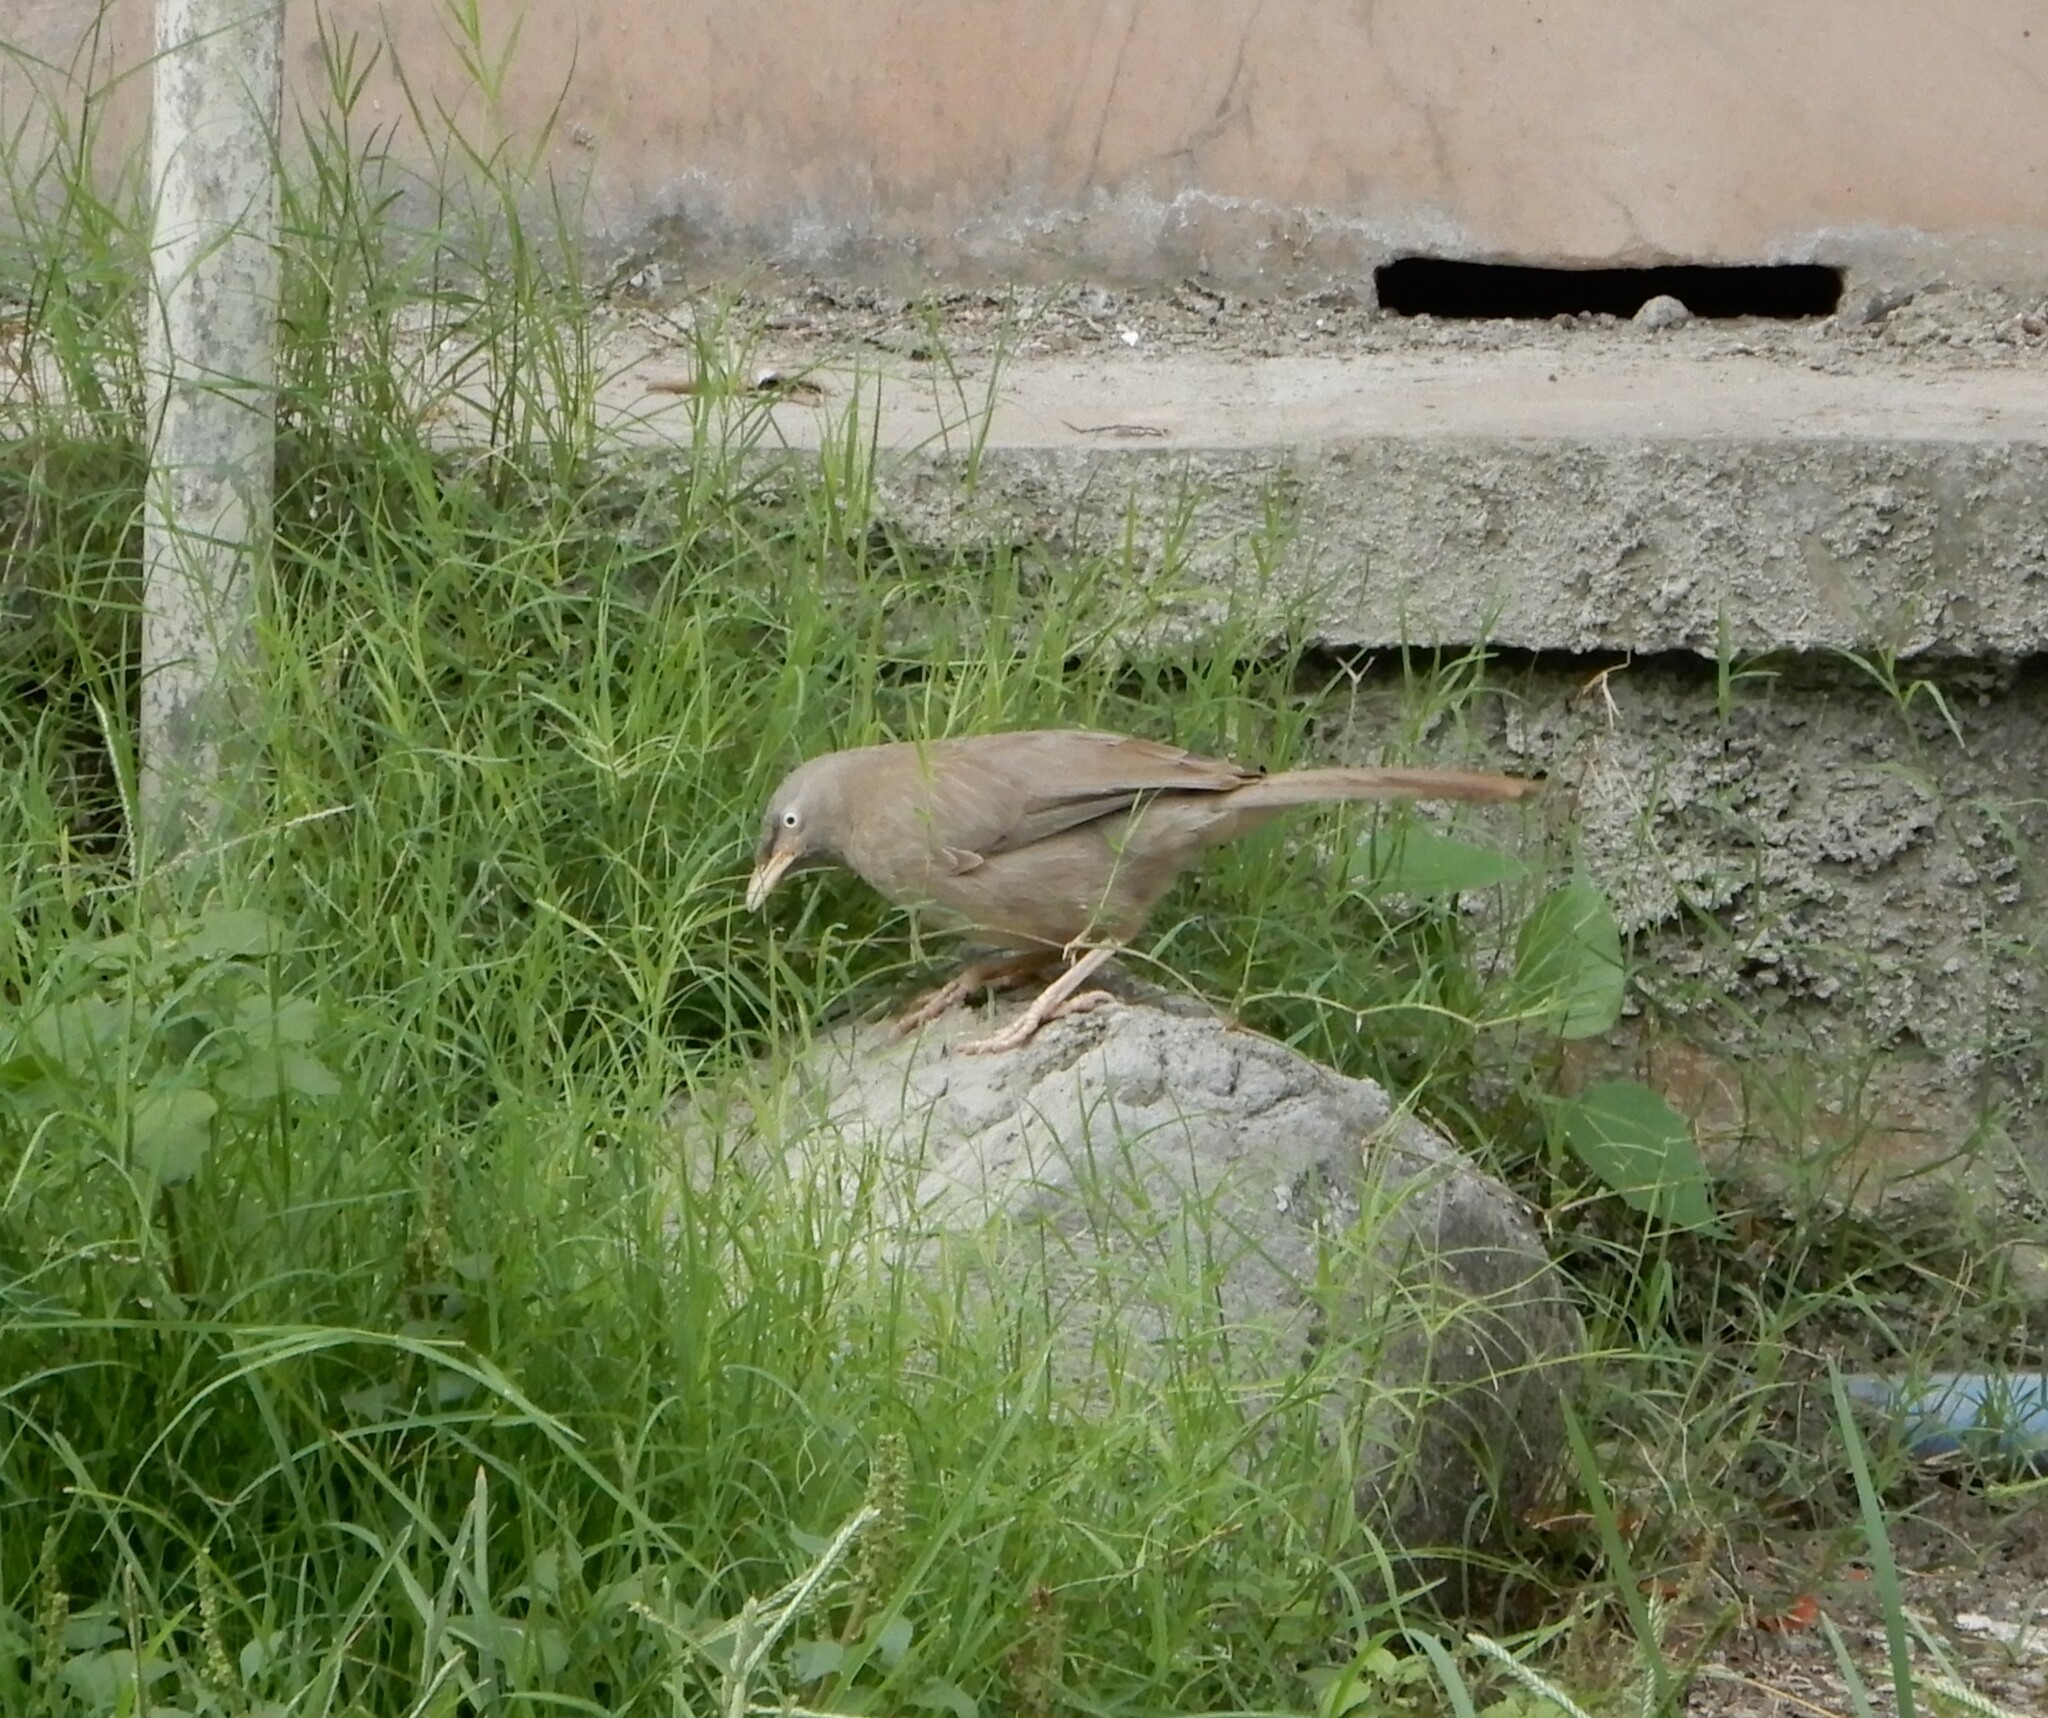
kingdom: Animalia
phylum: Chordata
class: Aves
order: Passeriformes
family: Leiothrichidae
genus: Turdoides
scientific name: Turdoides striata
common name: Jungle babbler
